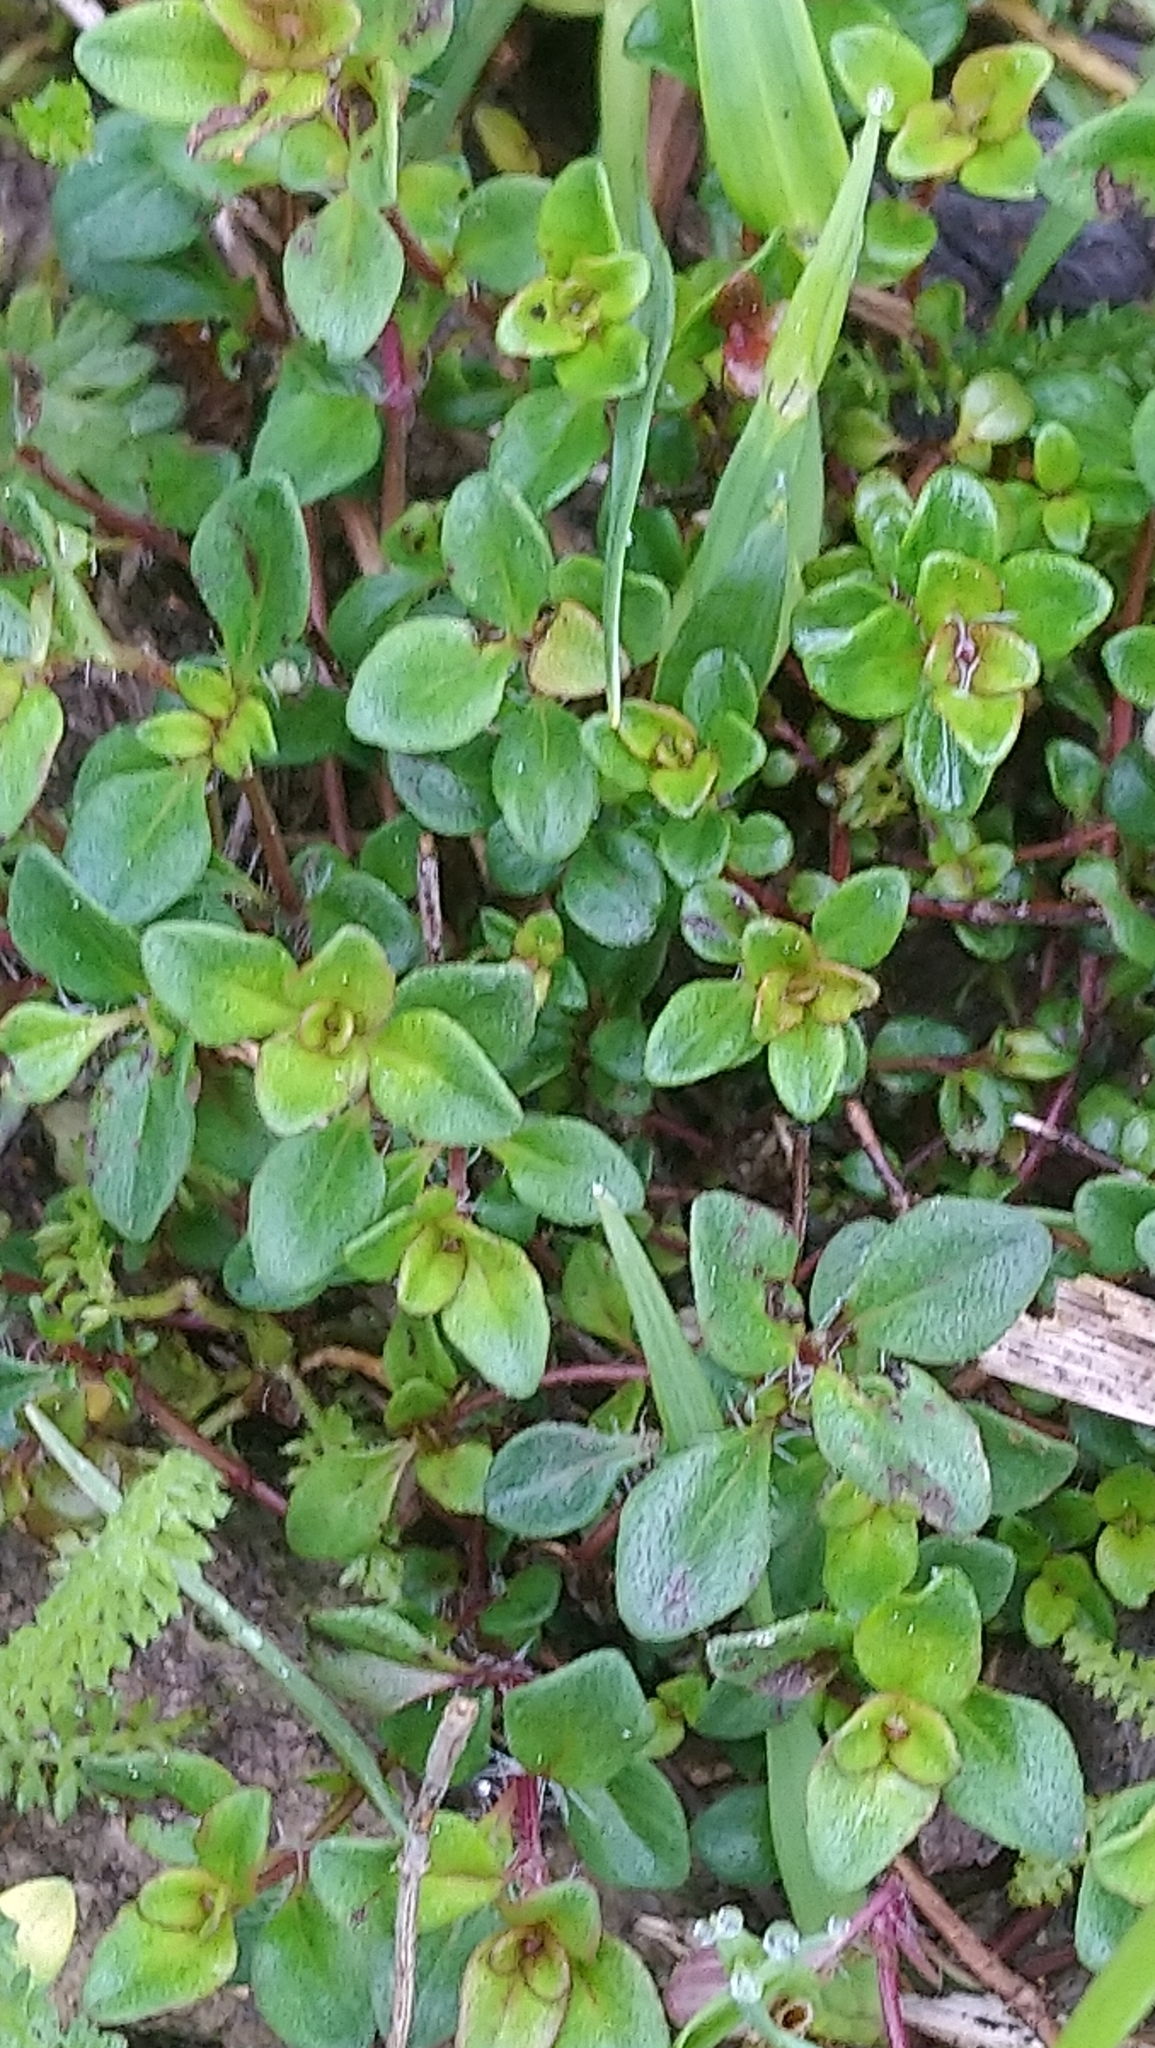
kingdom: Plantae
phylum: Tracheophyta
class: Magnoliopsida
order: Lamiales
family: Lamiaceae
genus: Thymus
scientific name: Thymus pulegioides
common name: Large thyme
